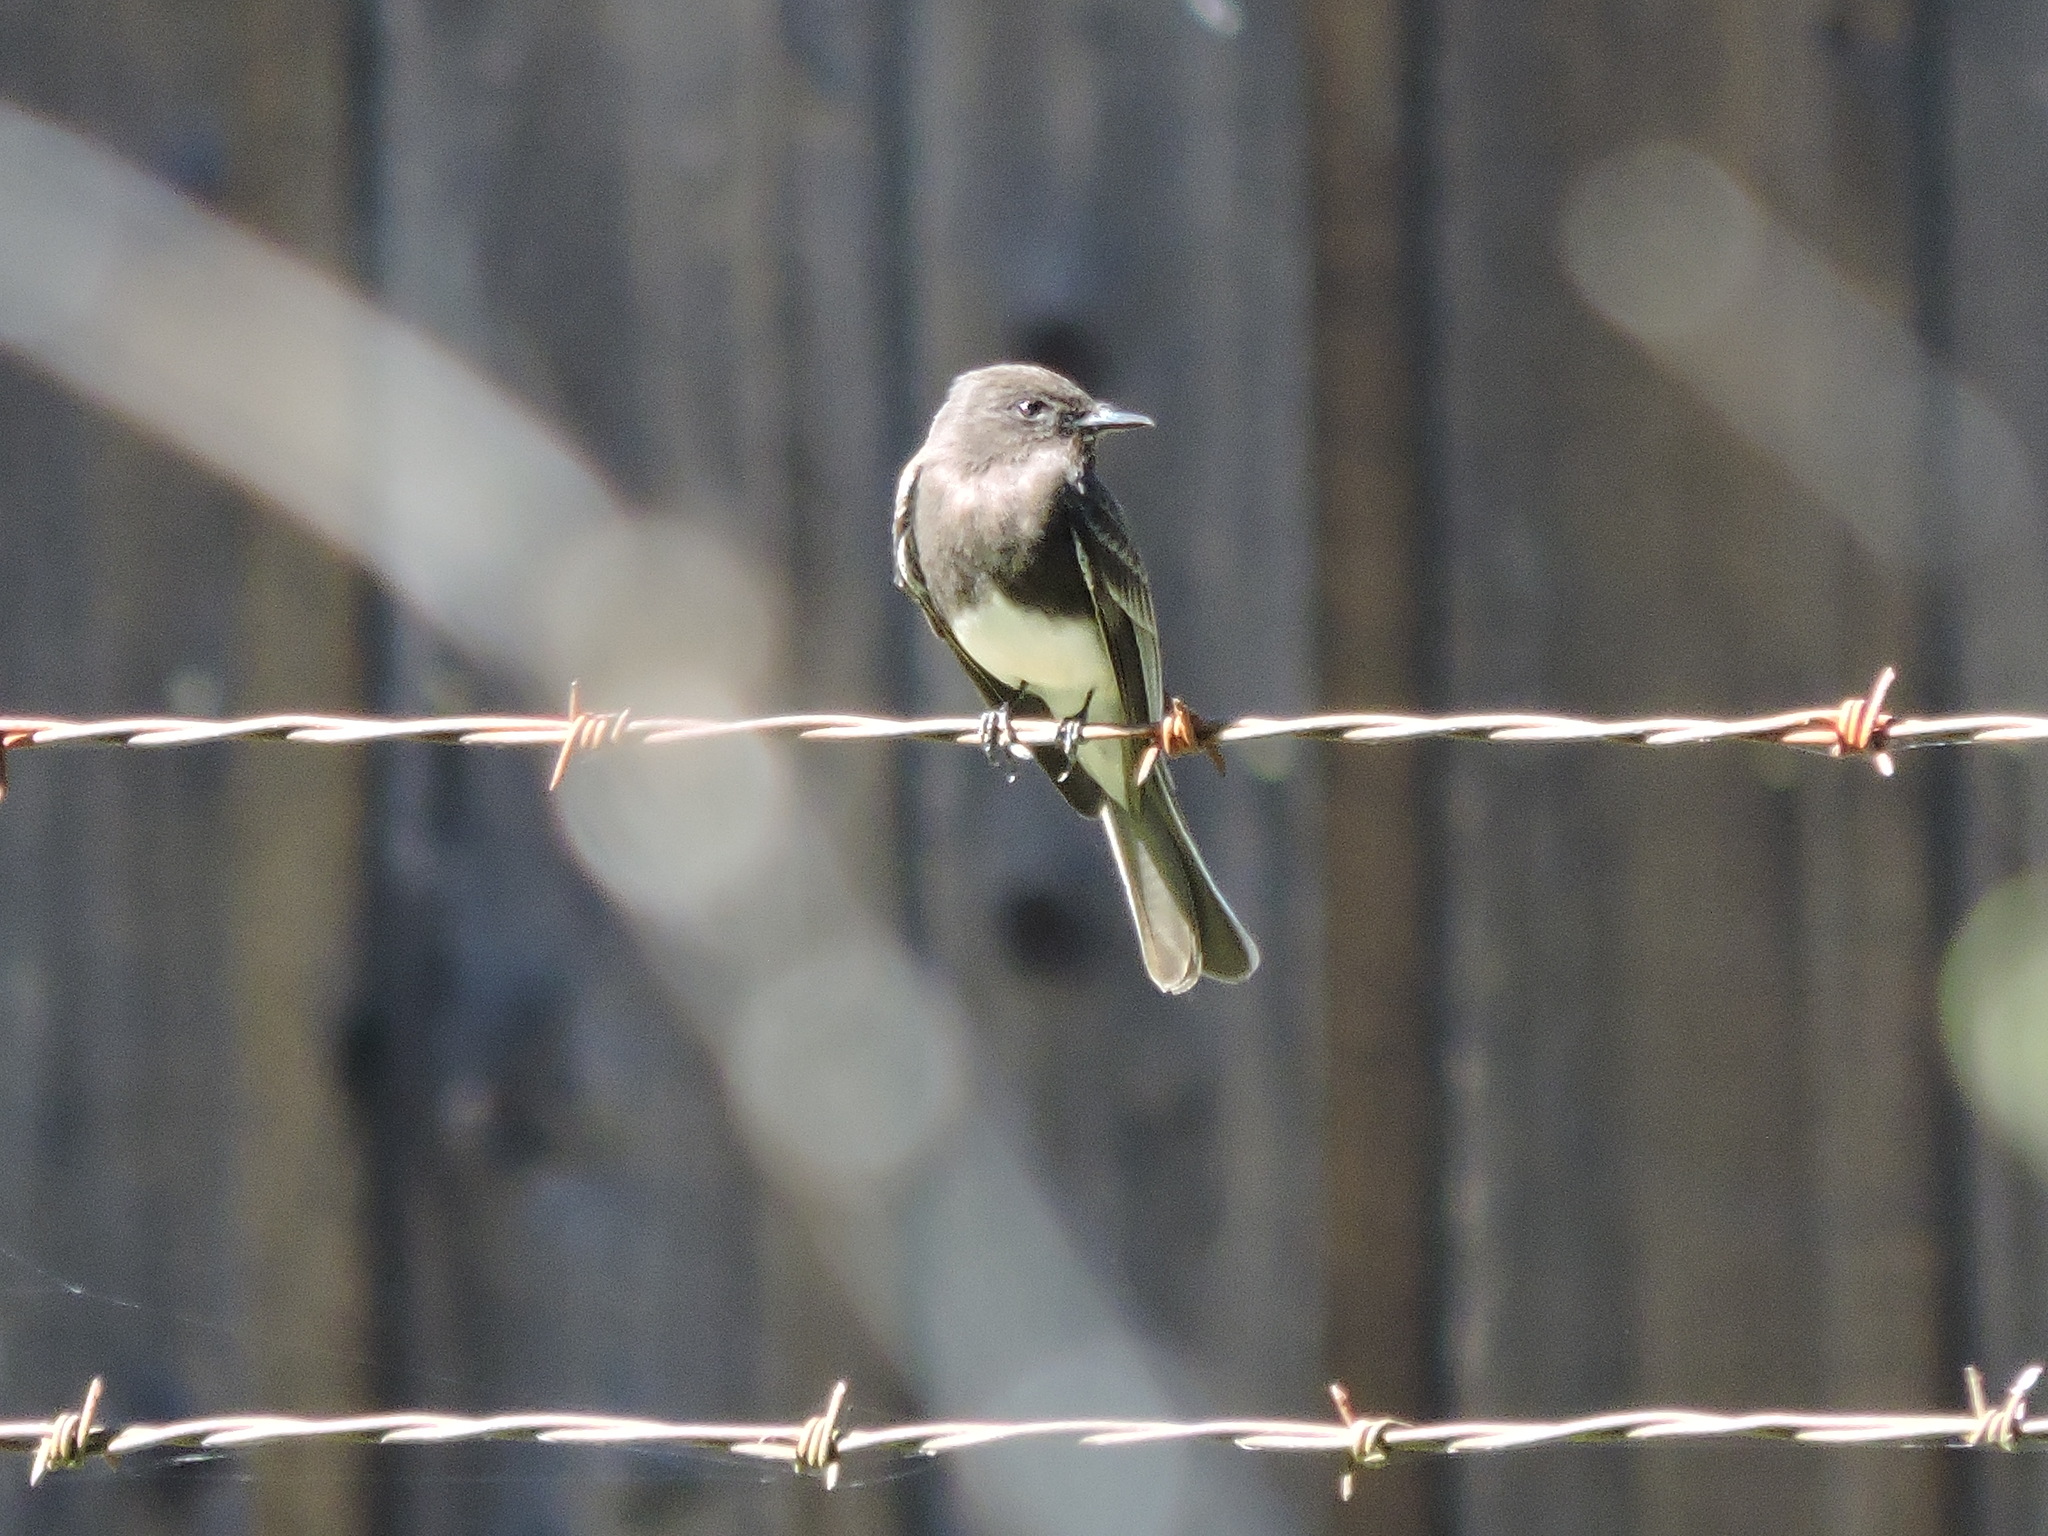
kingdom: Animalia
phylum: Chordata
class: Aves
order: Passeriformes
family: Tyrannidae
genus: Sayornis
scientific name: Sayornis nigricans
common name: Black phoebe
